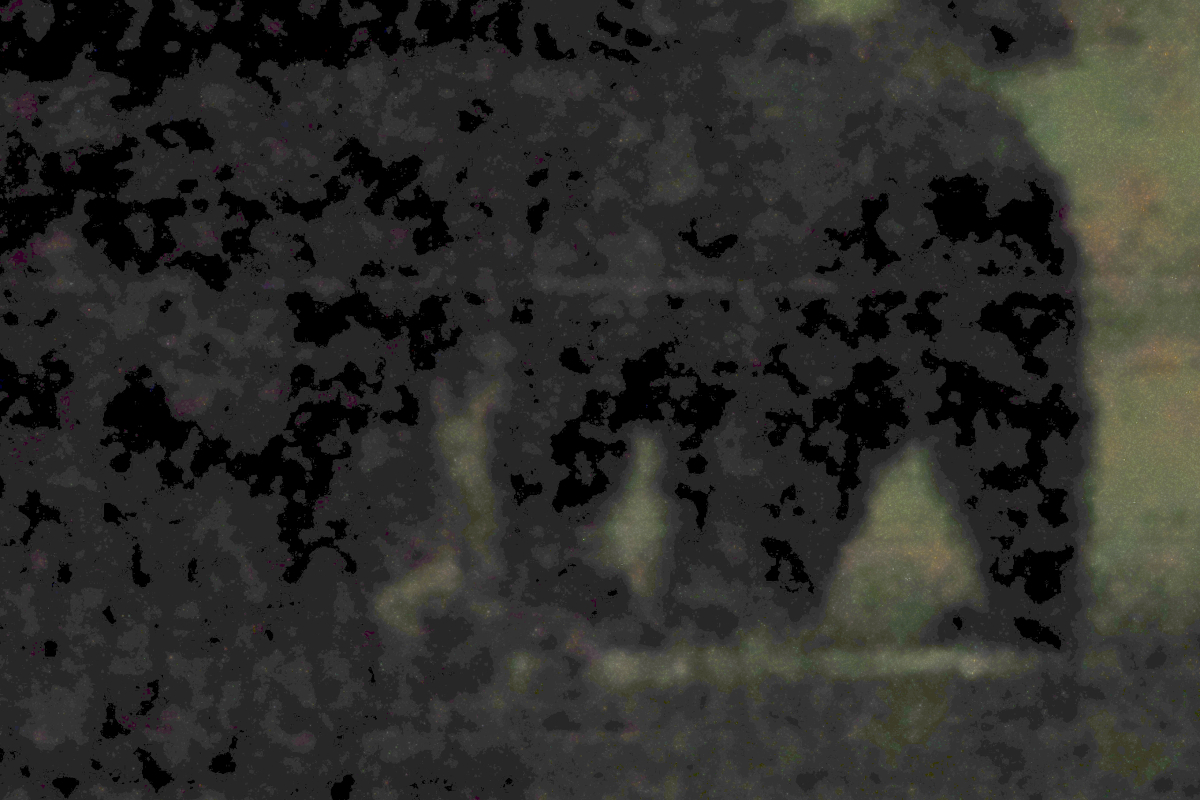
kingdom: Animalia
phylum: Chordata
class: Mammalia
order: Carnivora
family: Ursidae
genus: Ursus
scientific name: Ursus americanus
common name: American black bear
